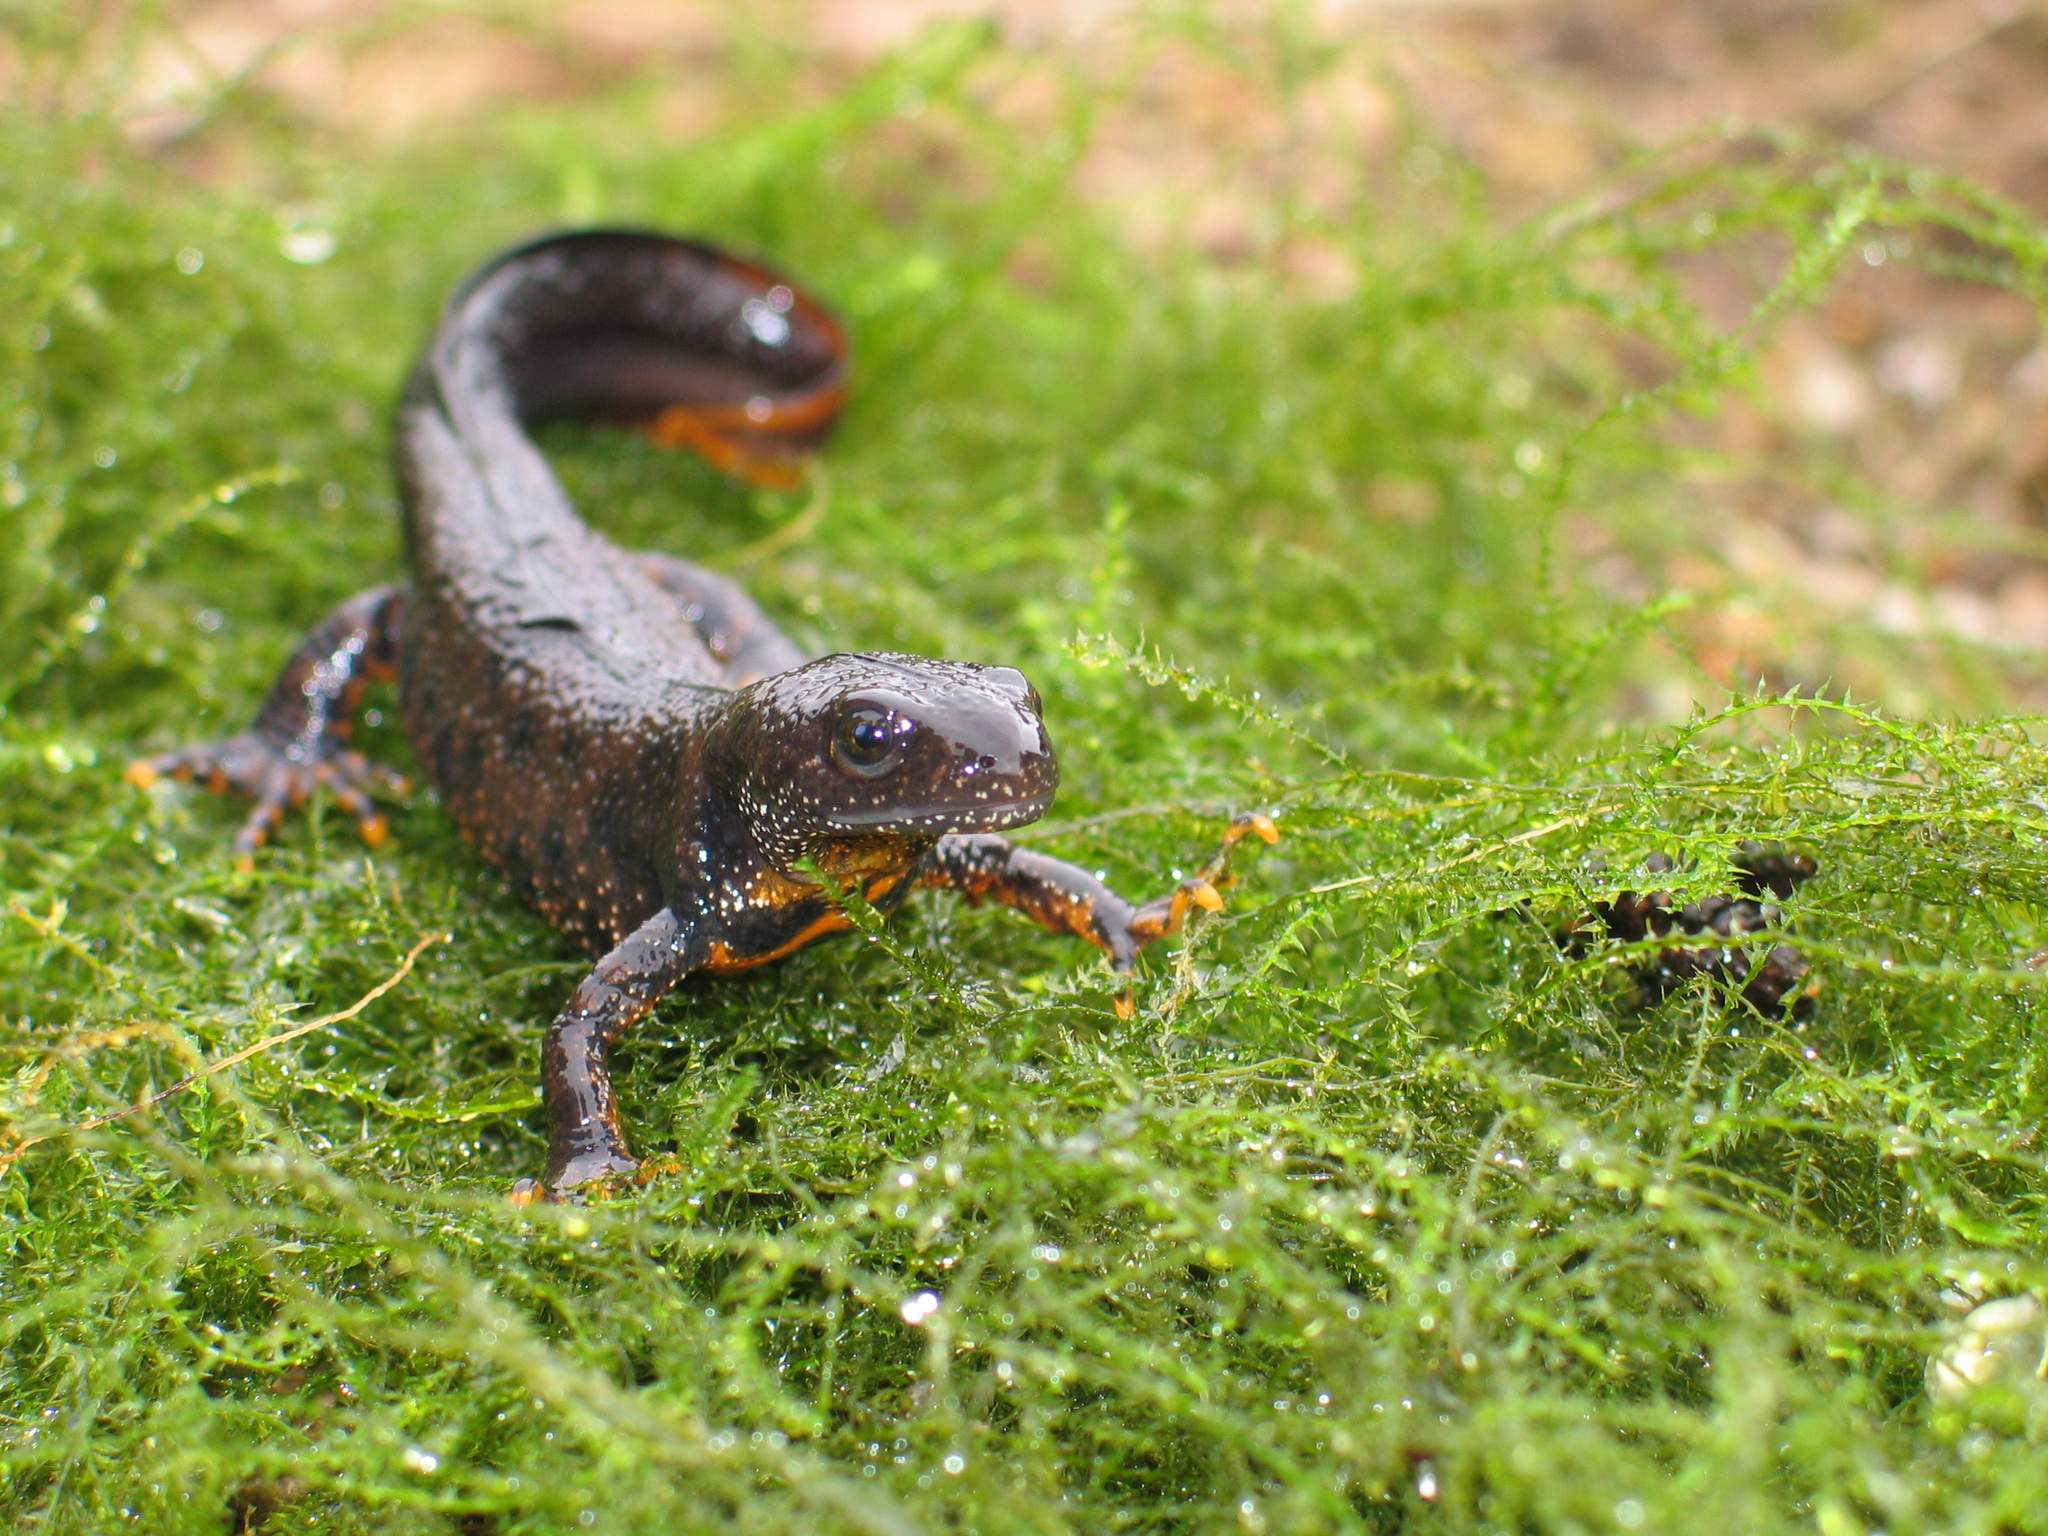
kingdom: Animalia
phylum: Chordata
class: Amphibia
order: Caudata
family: Salamandridae
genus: Triturus
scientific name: Triturus cristatus
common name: Crested newt
